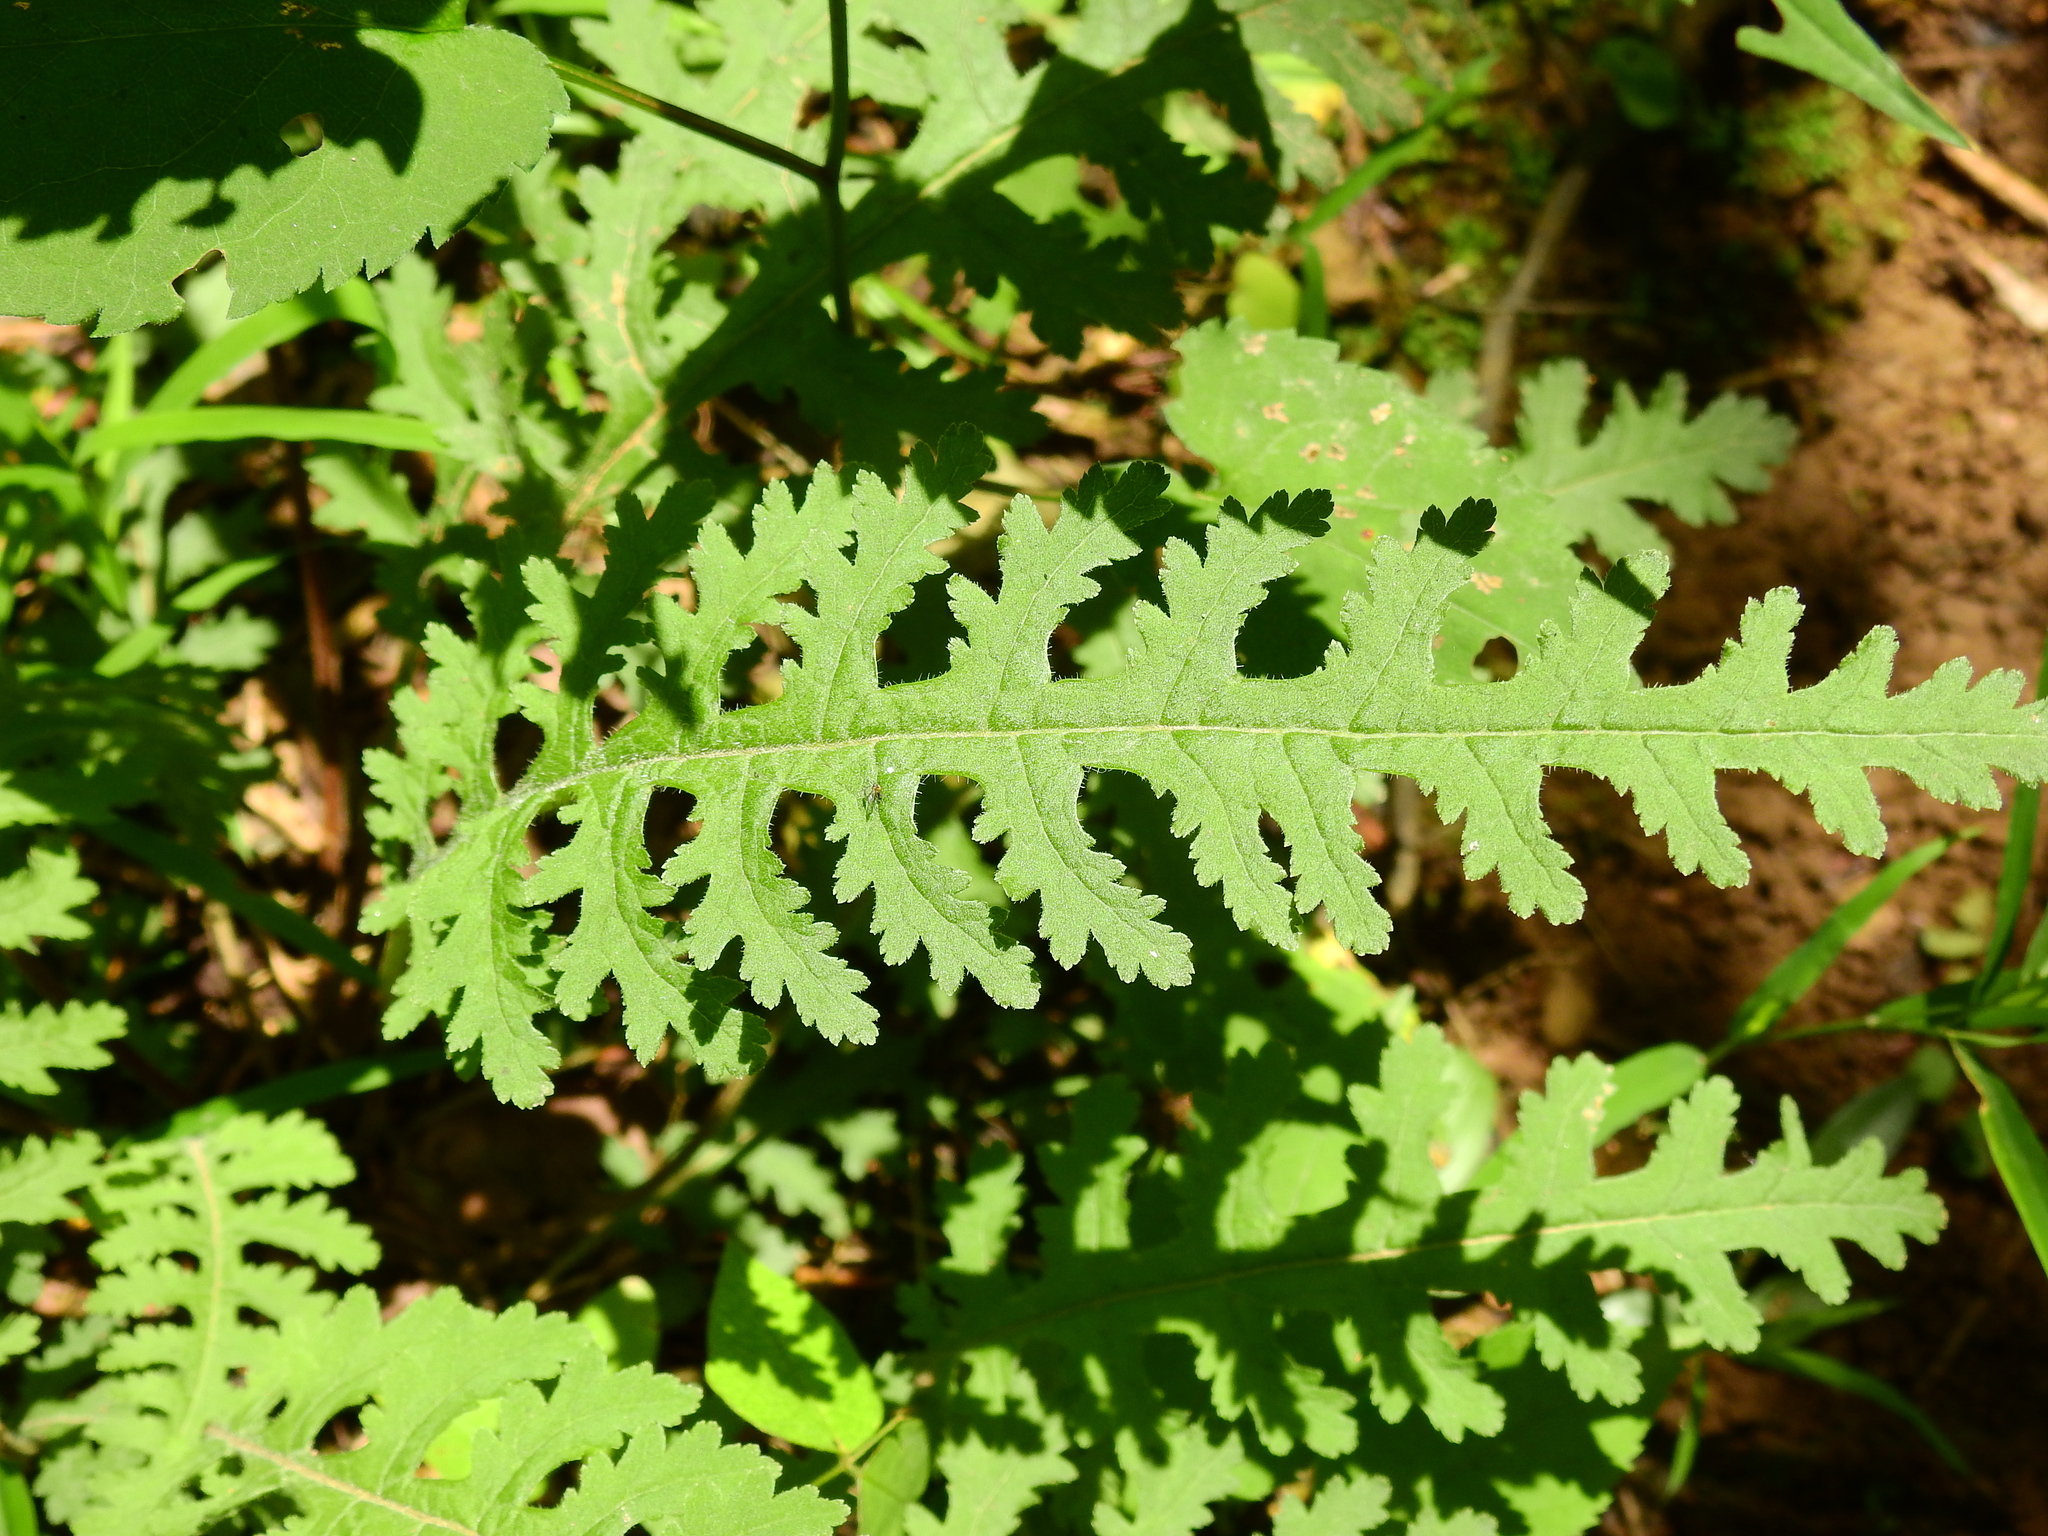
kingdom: Plantae
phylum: Tracheophyta
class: Magnoliopsida
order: Lamiales
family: Orobanchaceae
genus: Pedicularis
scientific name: Pedicularis canadensis
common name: Early lousewort
